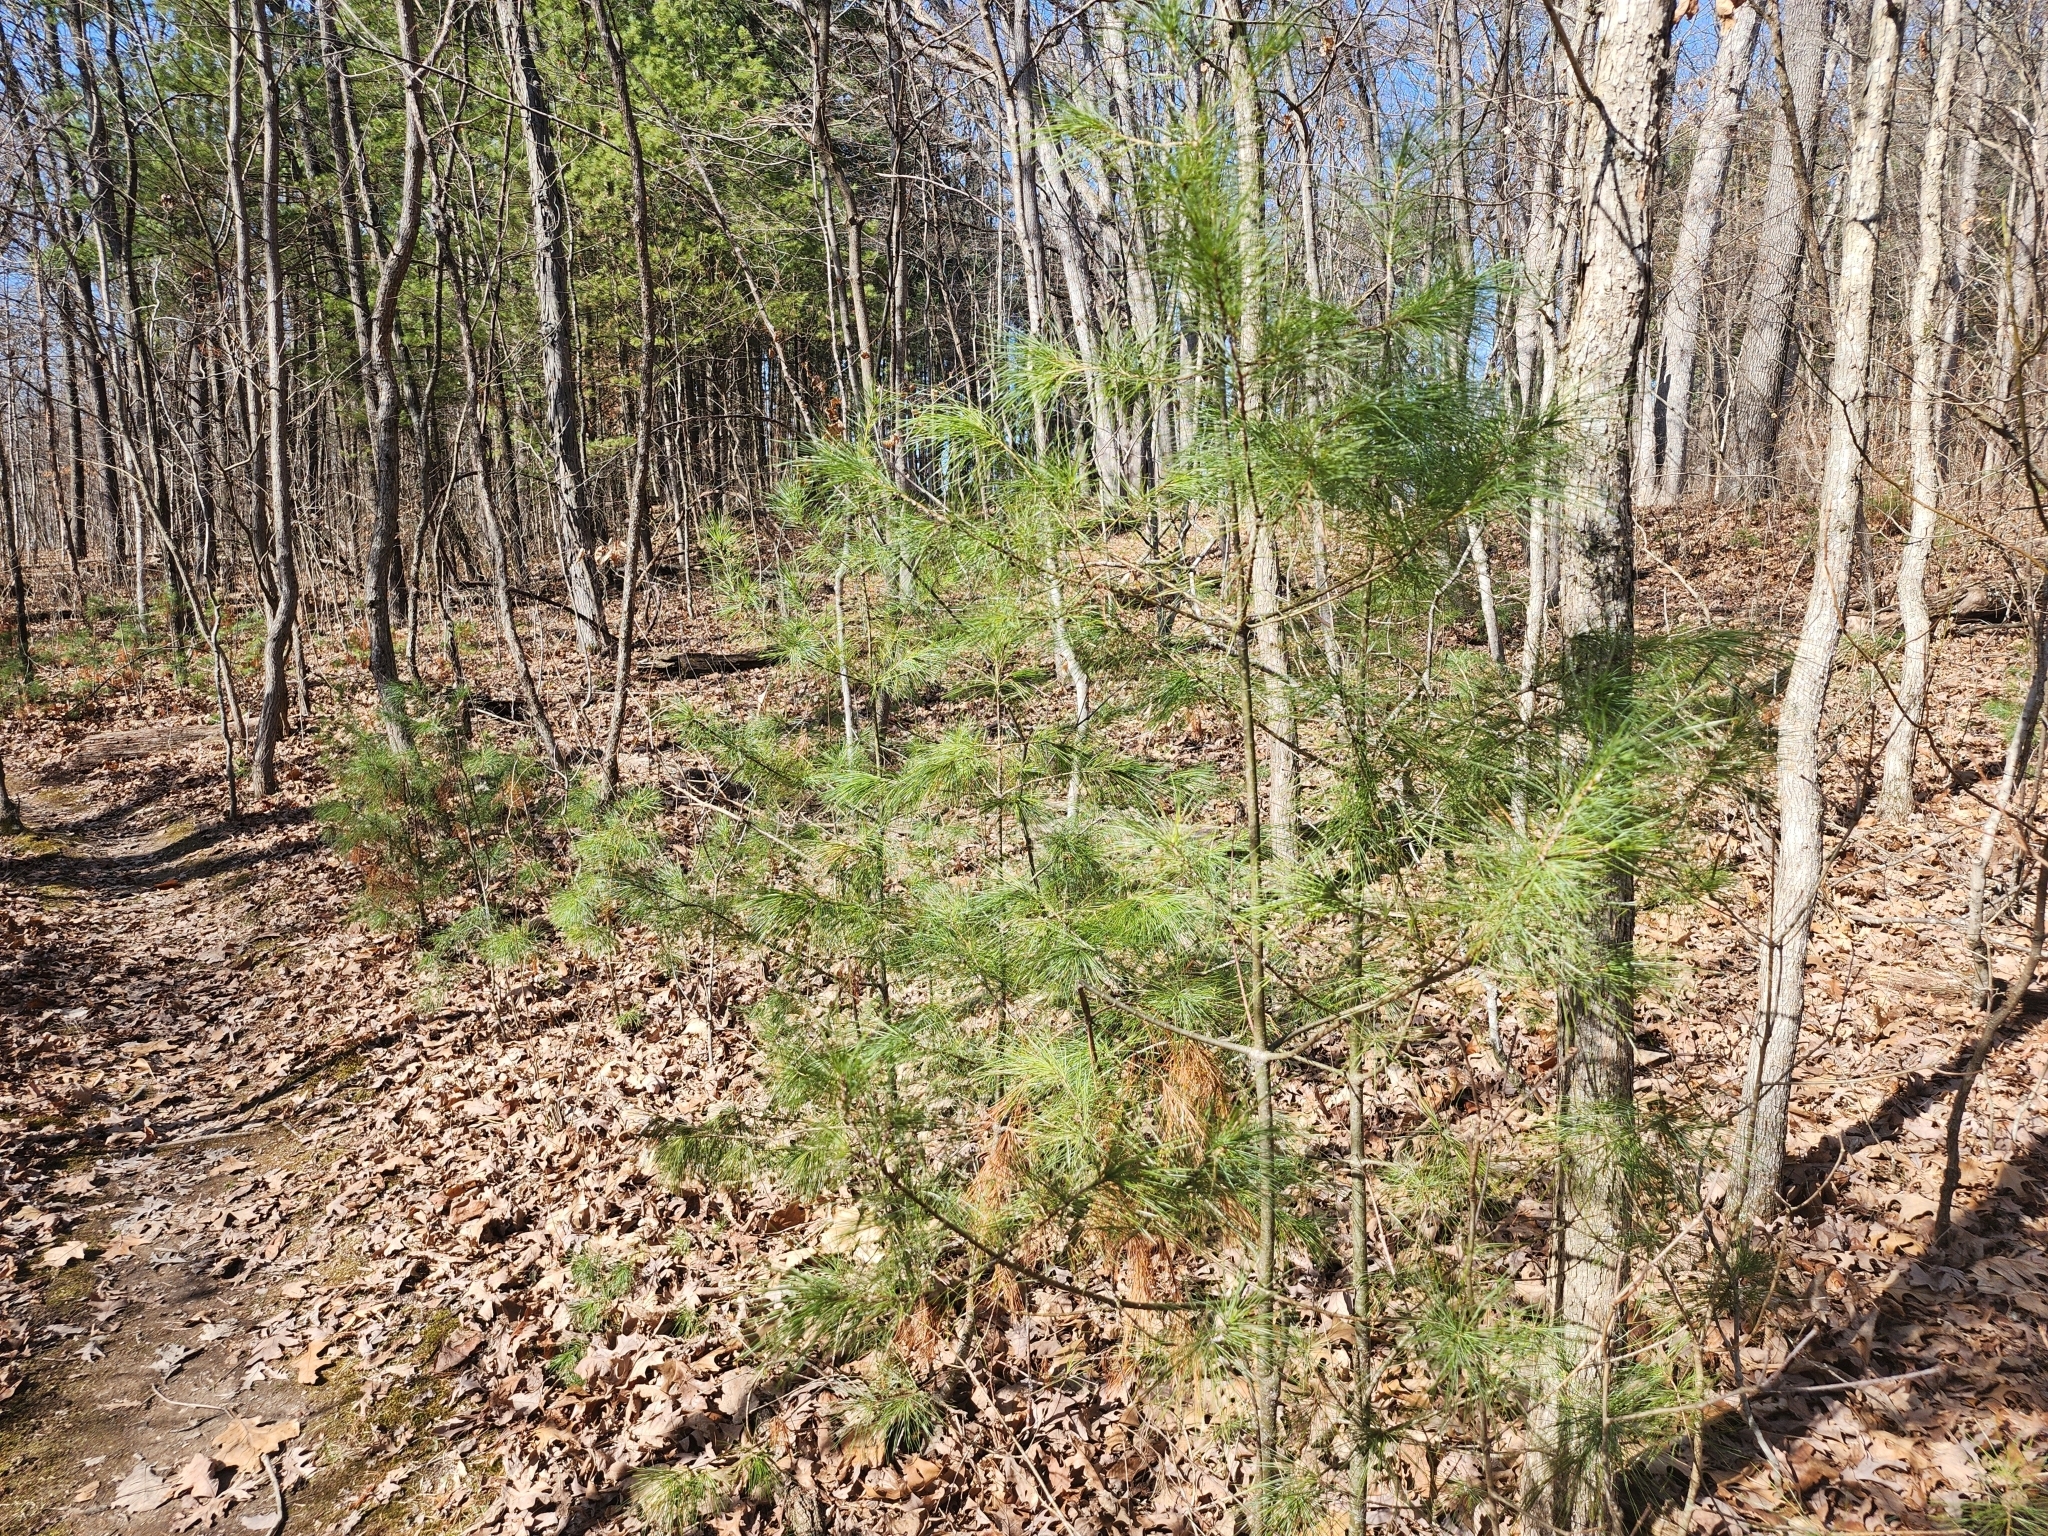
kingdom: Plantae
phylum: Tracheophyta
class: Pinopsida
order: Pinales
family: Pinaceae
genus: Pinus
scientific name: Pinus strobus
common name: Weymouth pine
